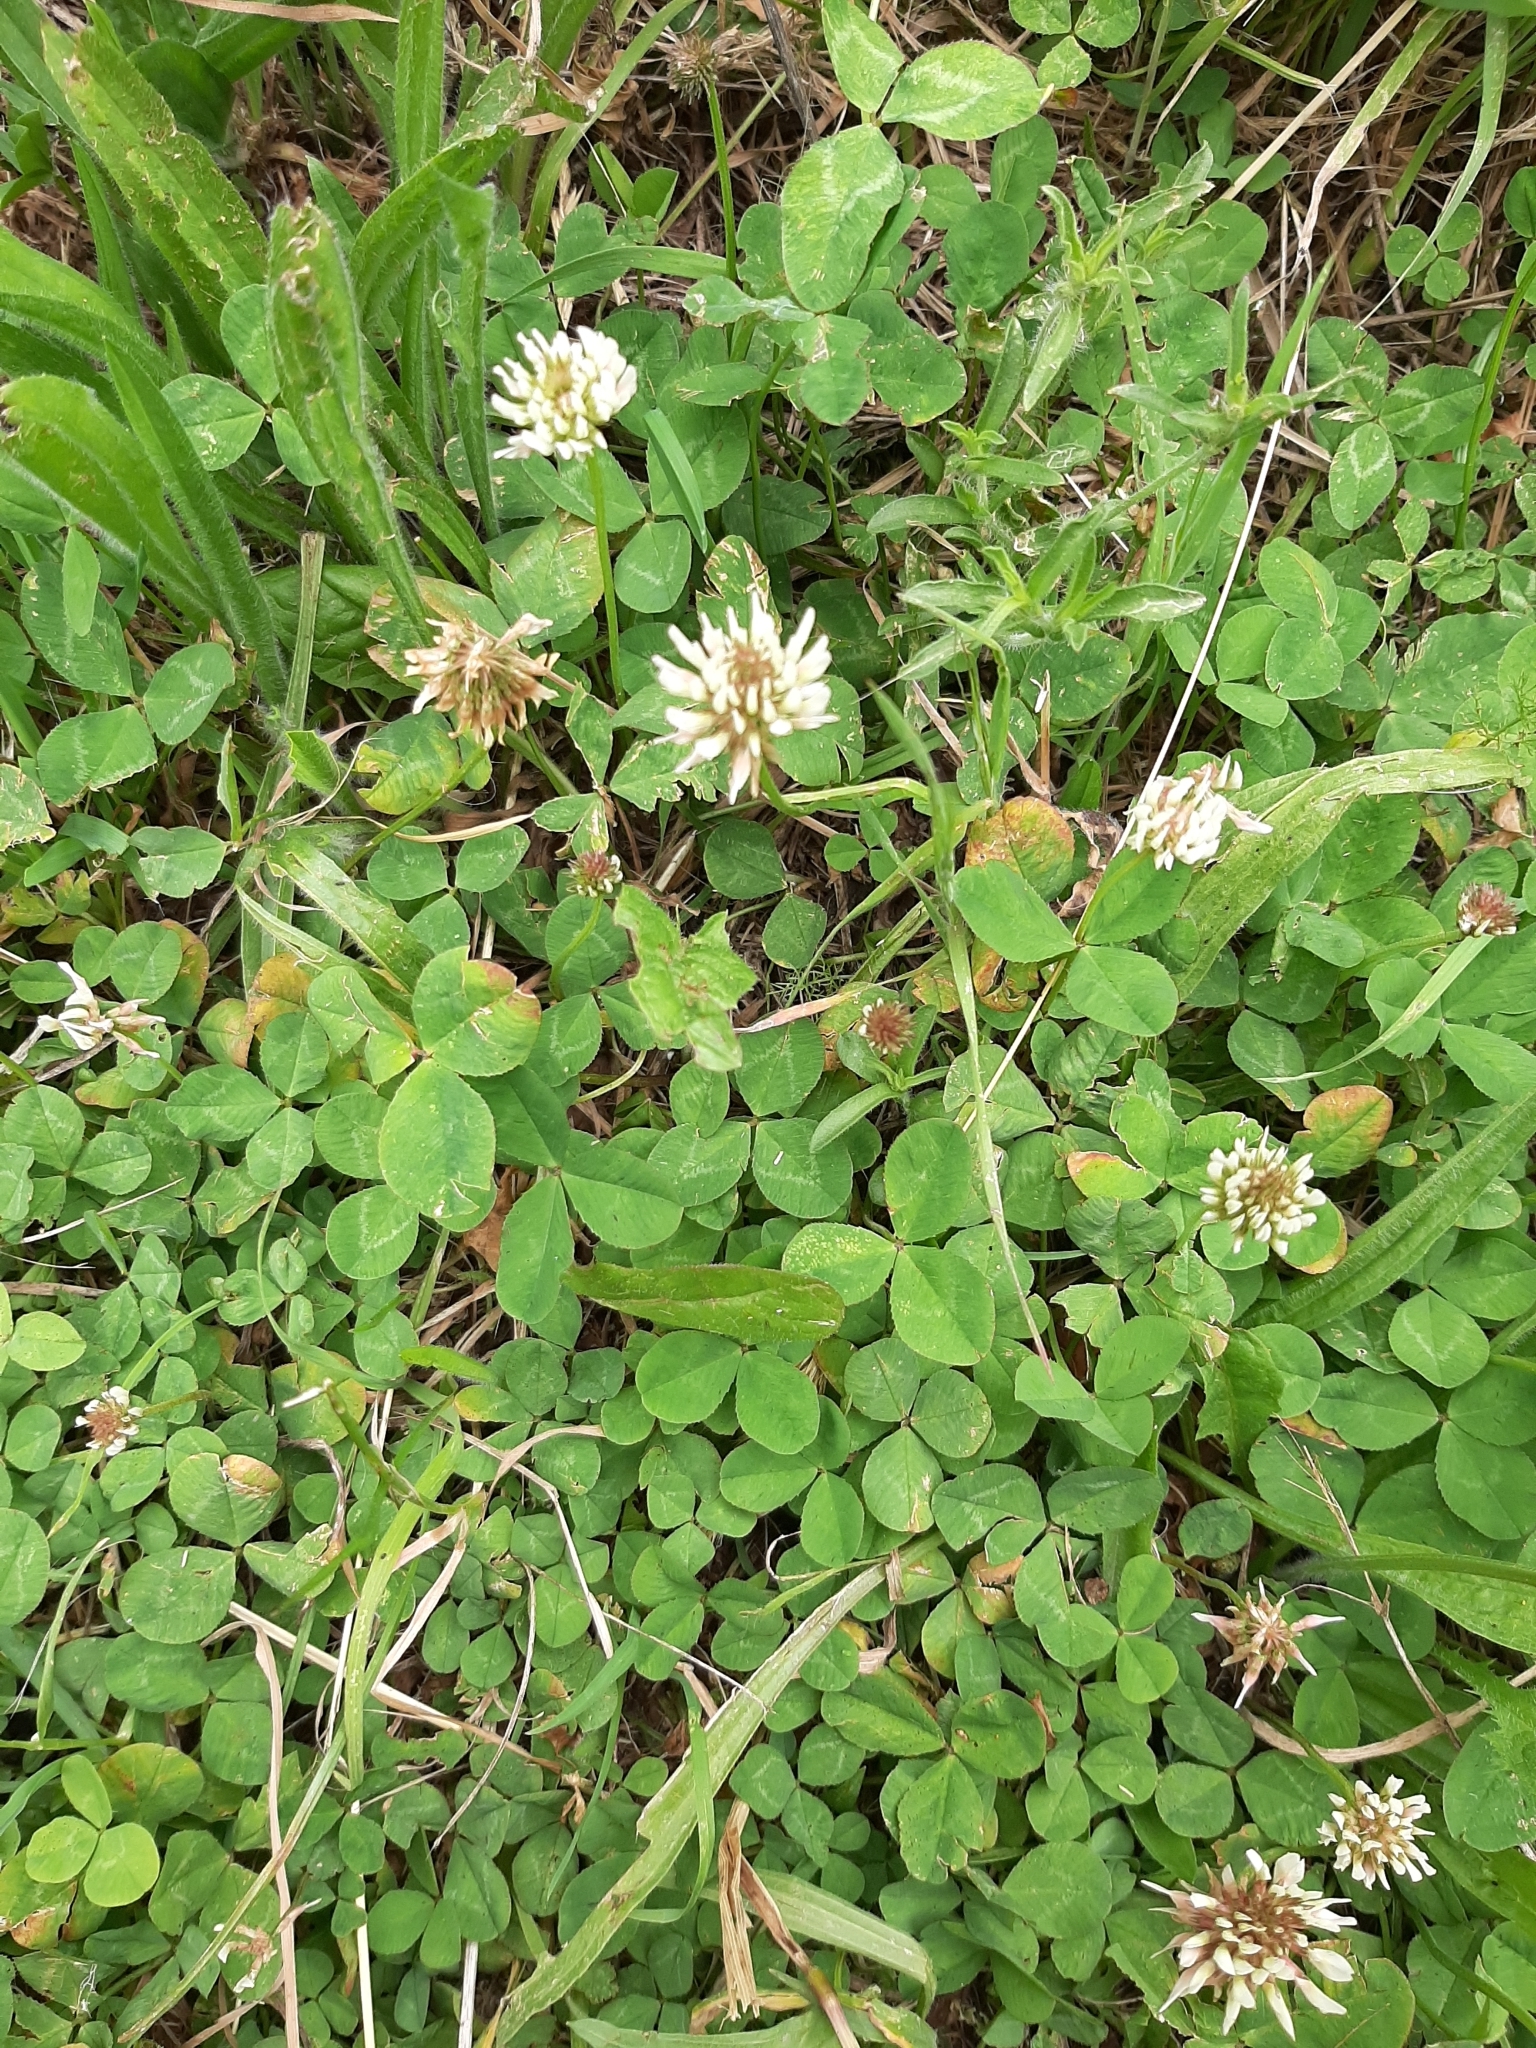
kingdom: Plantae
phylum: Tracheophyta
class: Magnoliopsida
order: Fabales
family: Fabaceae
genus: Trifolium
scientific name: Trifolium repens
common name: White clover
